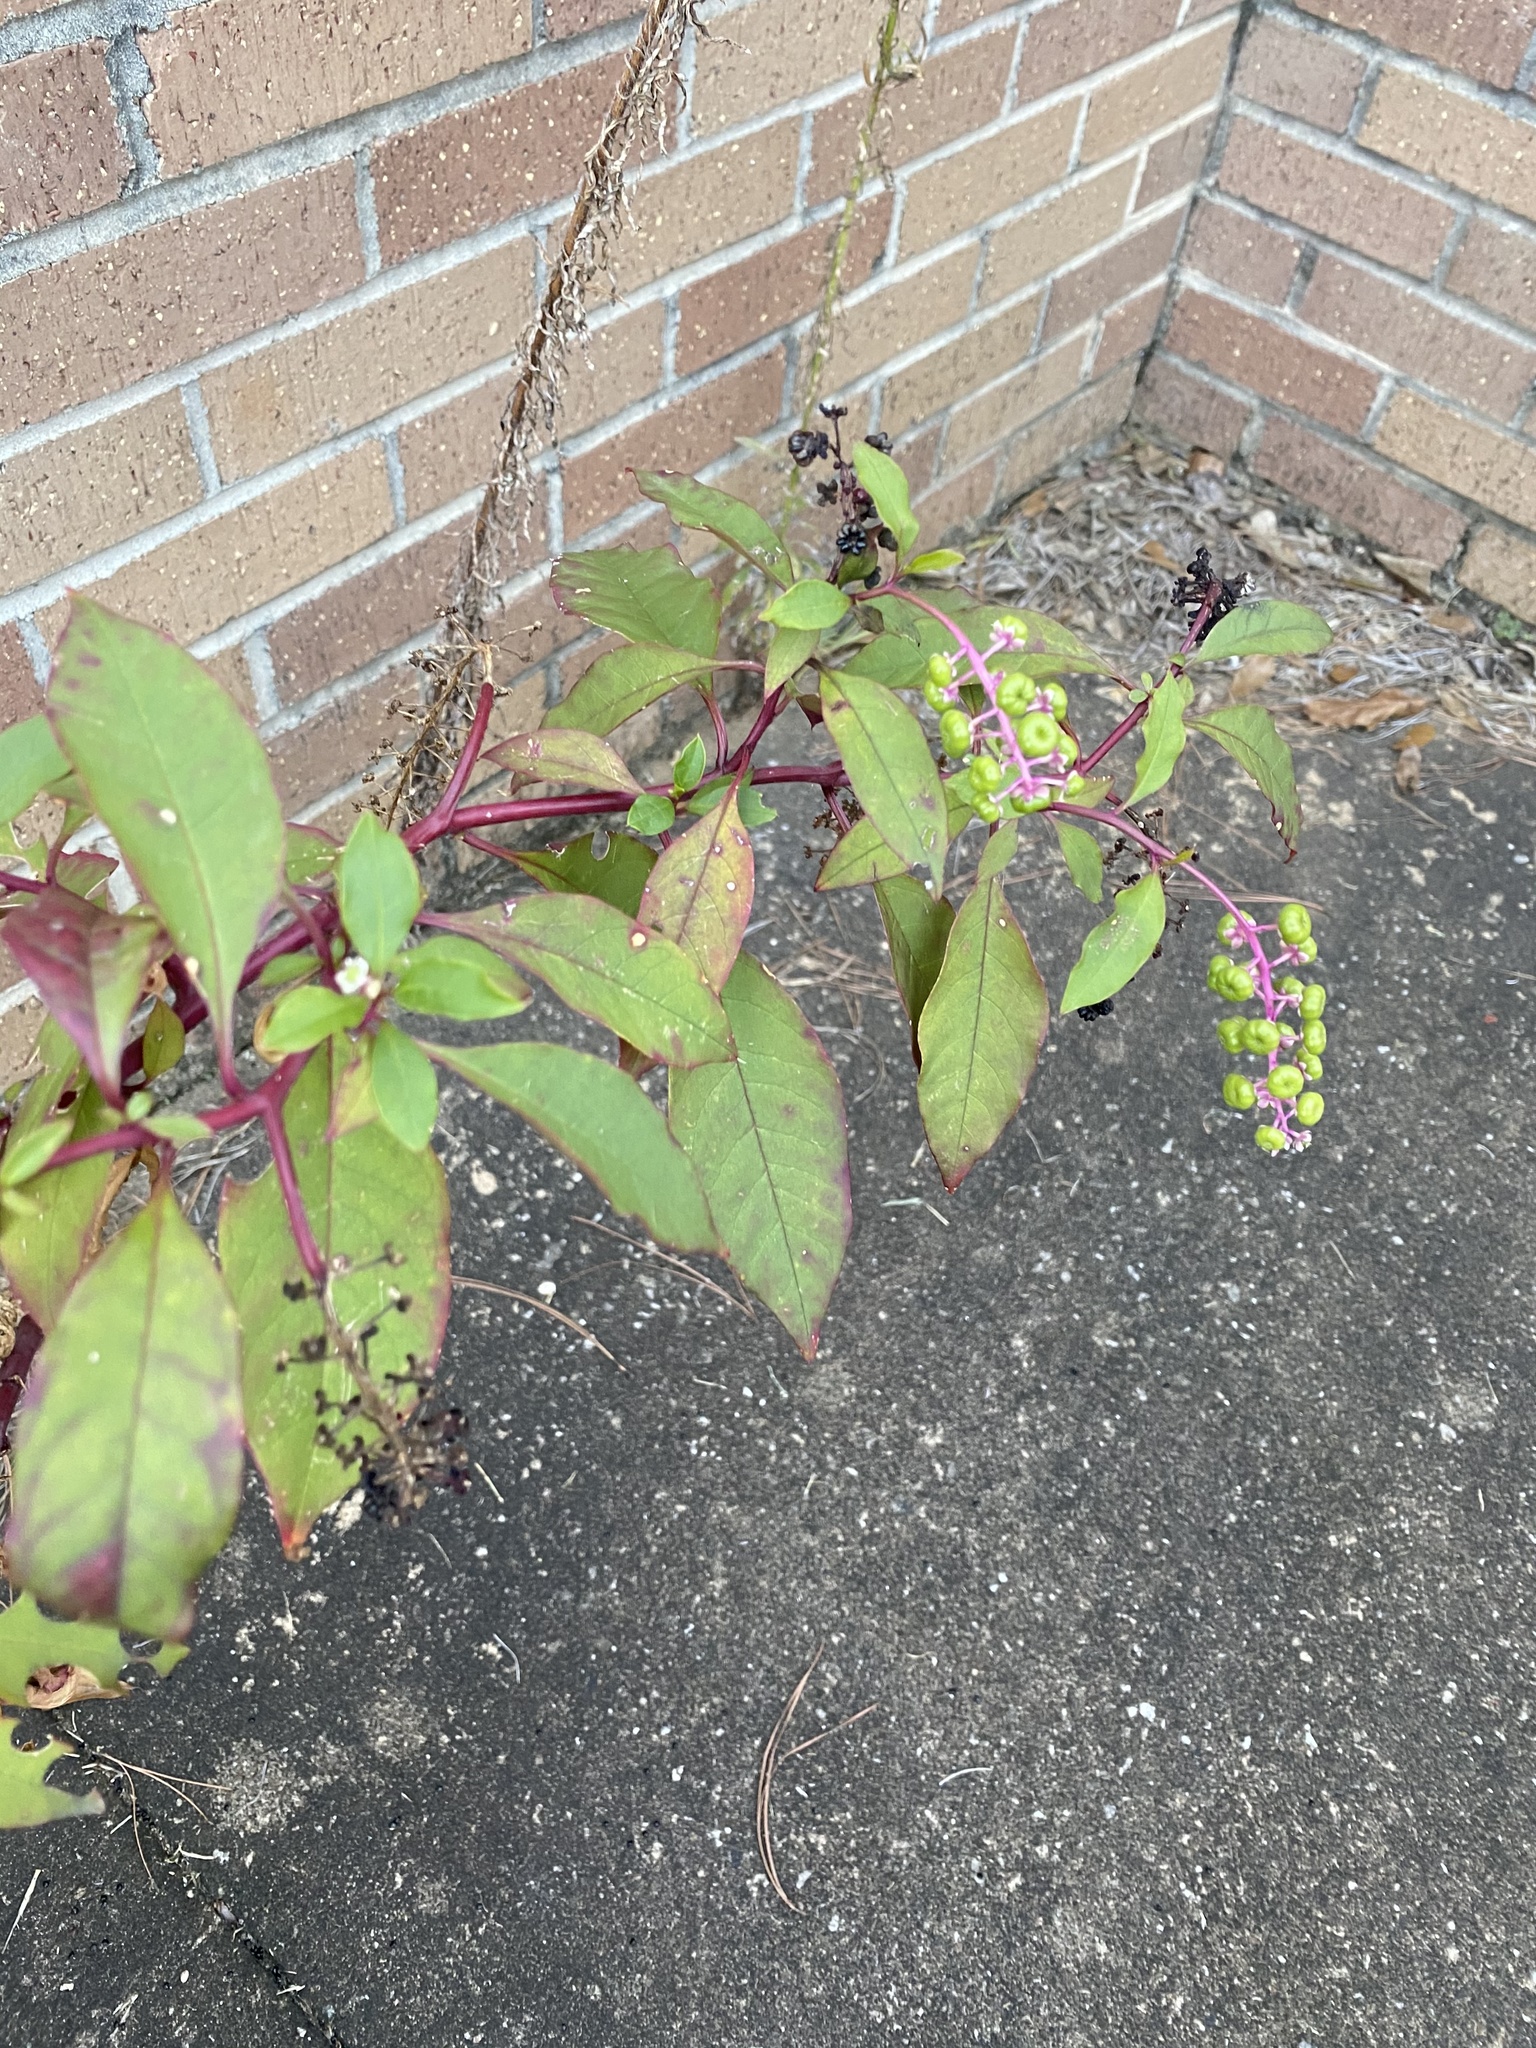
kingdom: Plantae
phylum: Tracheophyta
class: Magnoliopsida
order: Caryophyllales
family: Phytolaccaceae
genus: Phytolacca
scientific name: Phytolacca americana
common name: American pokeweed
